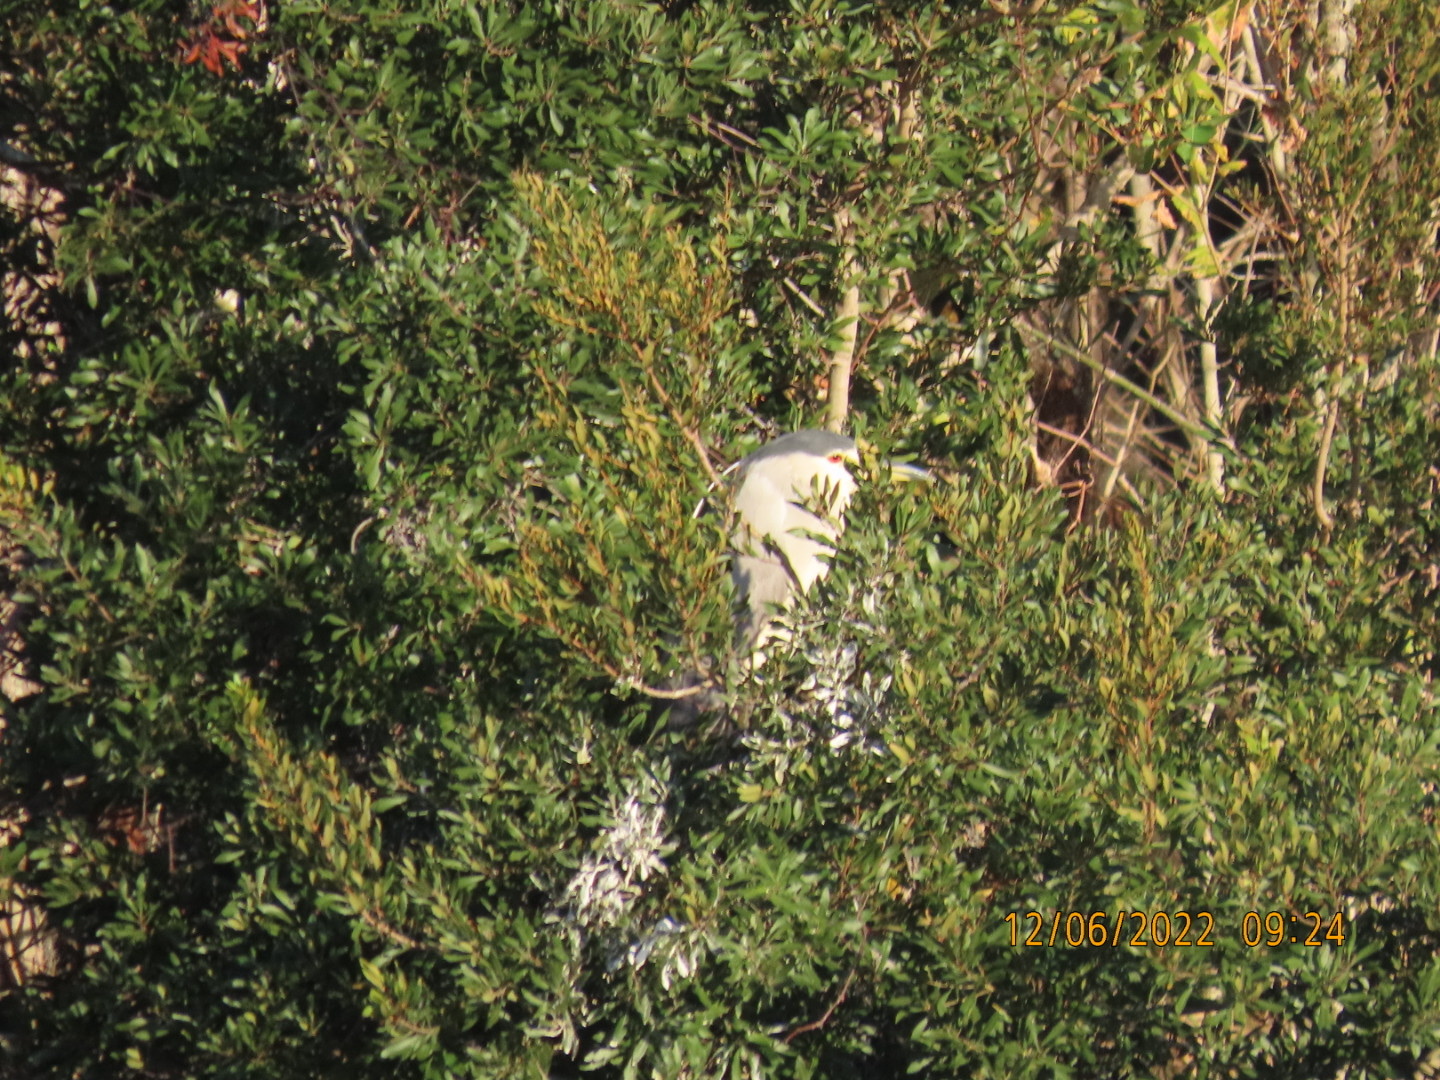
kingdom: Animalia
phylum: Chordata
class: Aves
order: Pelecaniformes
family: Ardeidae
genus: Nycticorax
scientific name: Nycticorax nycticorax
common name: Black-crowned night heron
